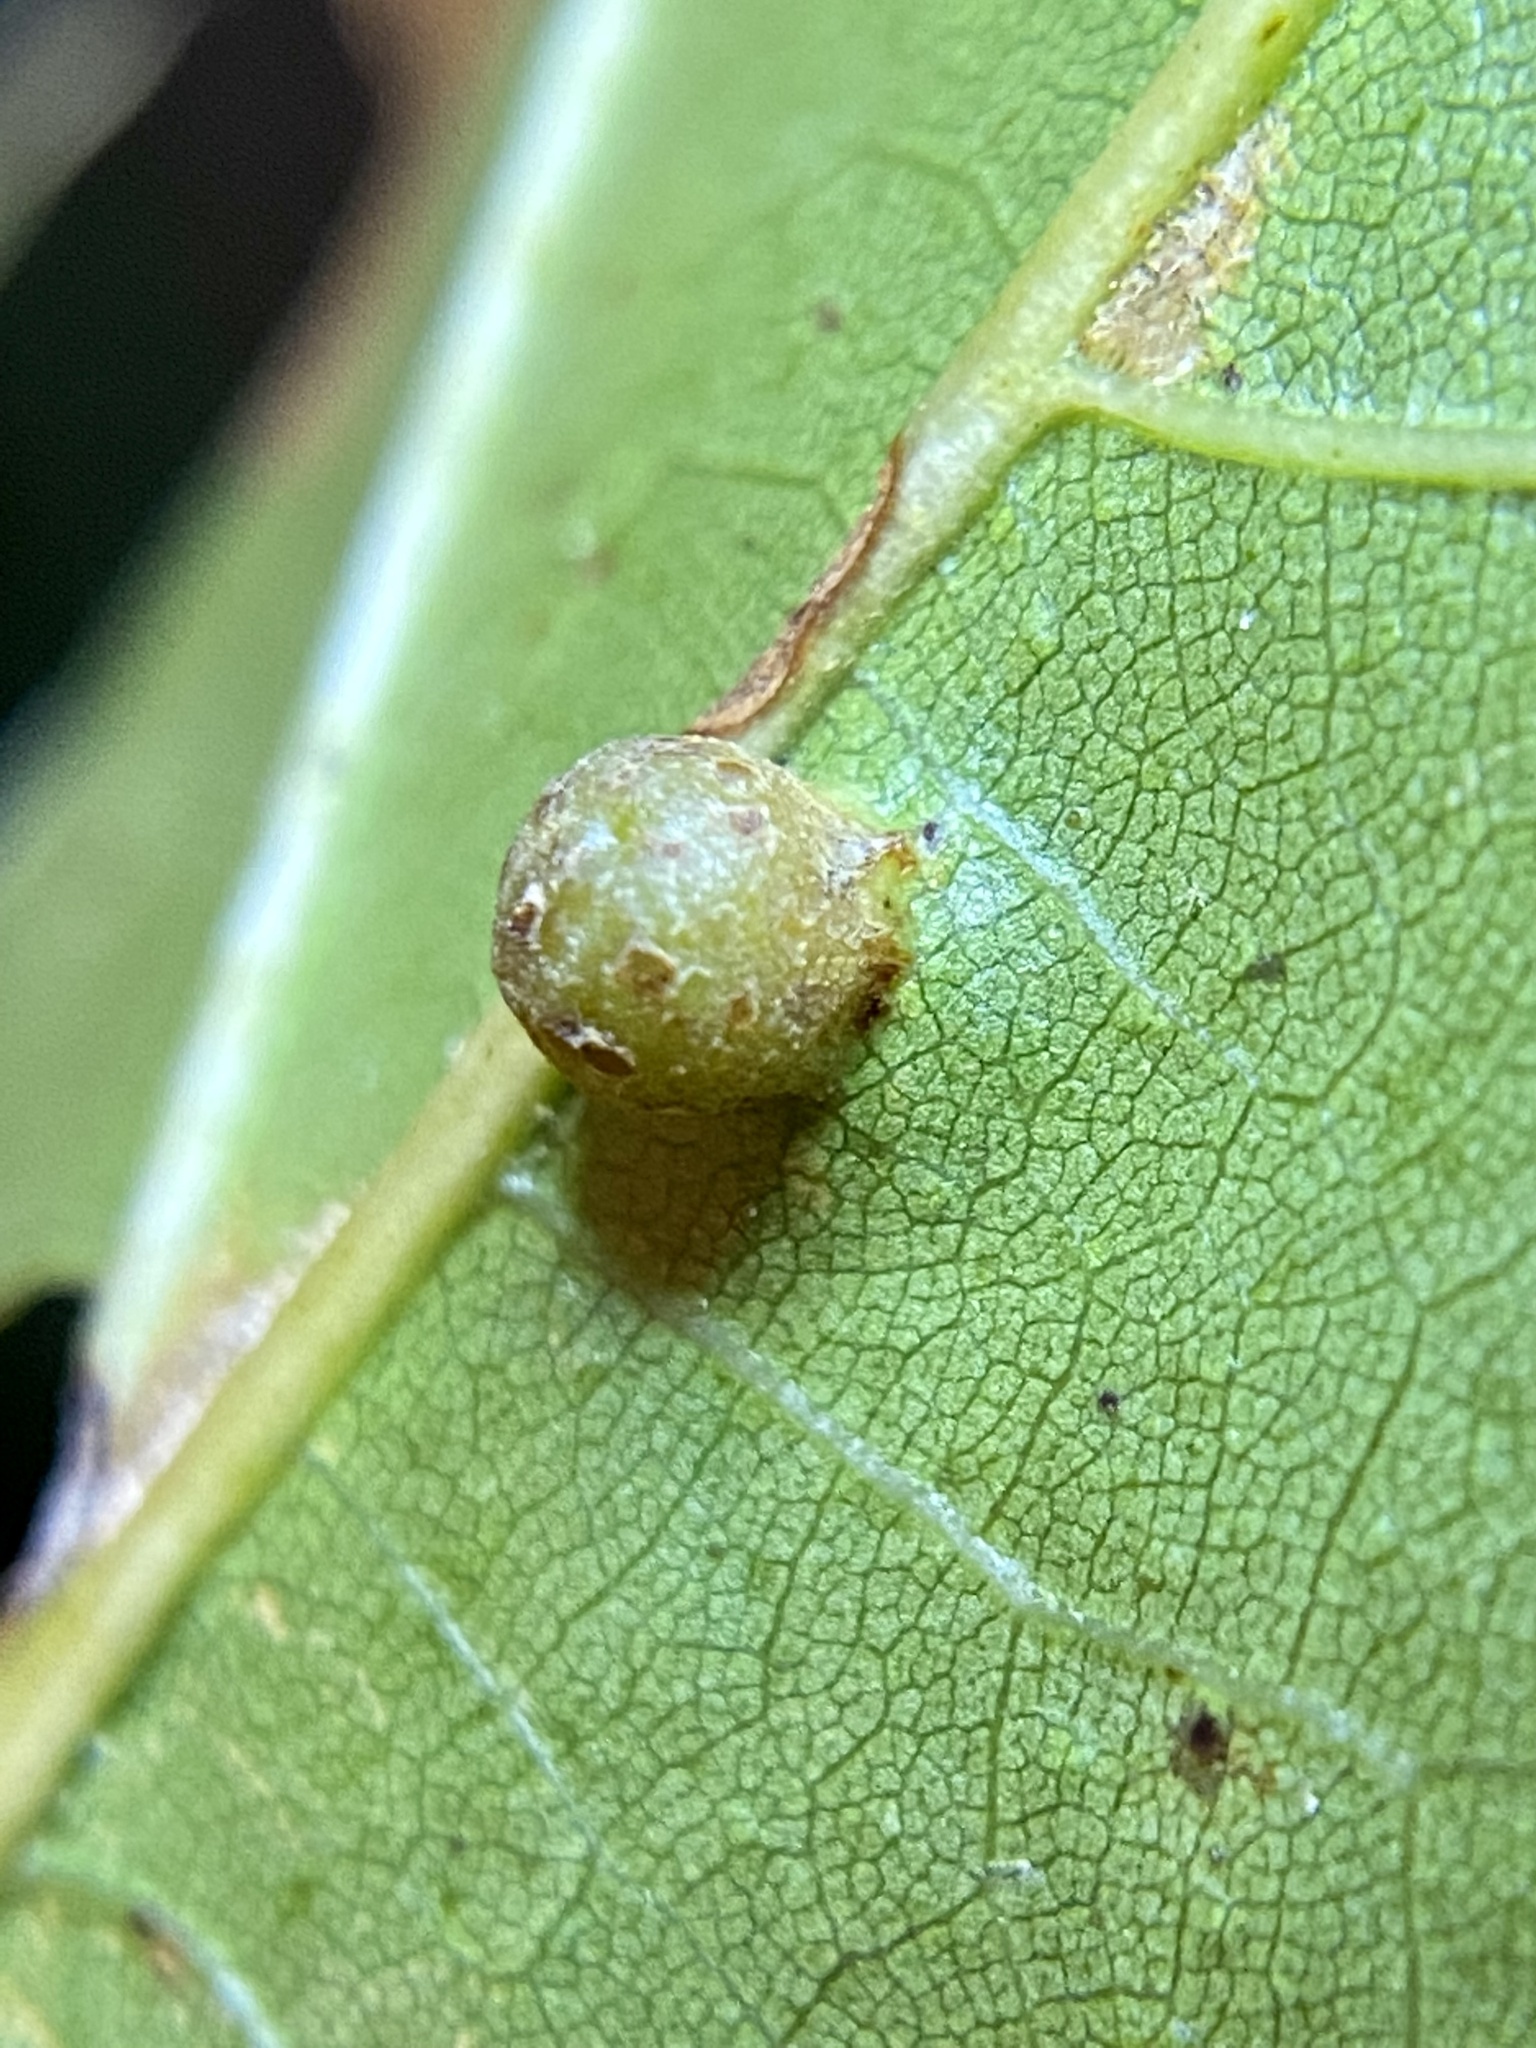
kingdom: Animalia
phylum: Arthropoda
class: Insecta
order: Diptera
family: Cecidomyiidae
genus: Polystepha
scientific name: Polystepha globosa
